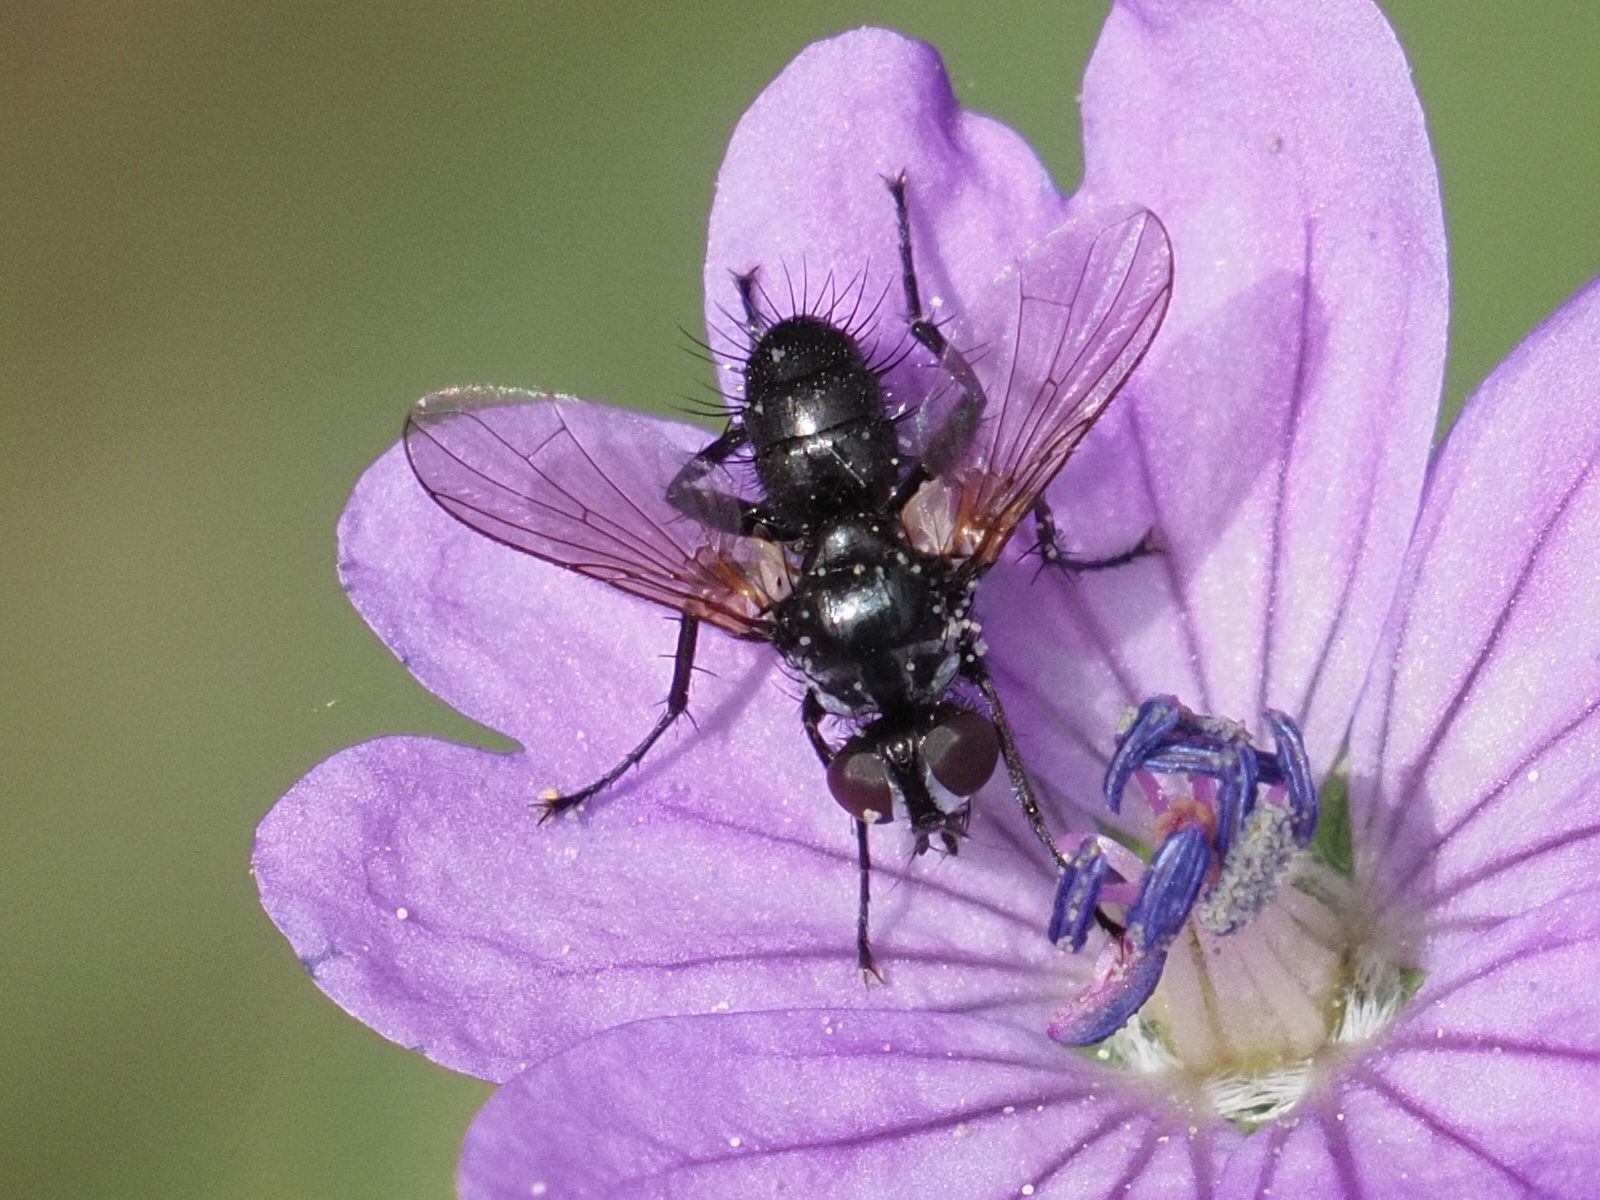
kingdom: Animalia
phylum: Arthropoda
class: Insecta
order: Diptera
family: Tachinidae
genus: Phania
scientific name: Phania funesta
